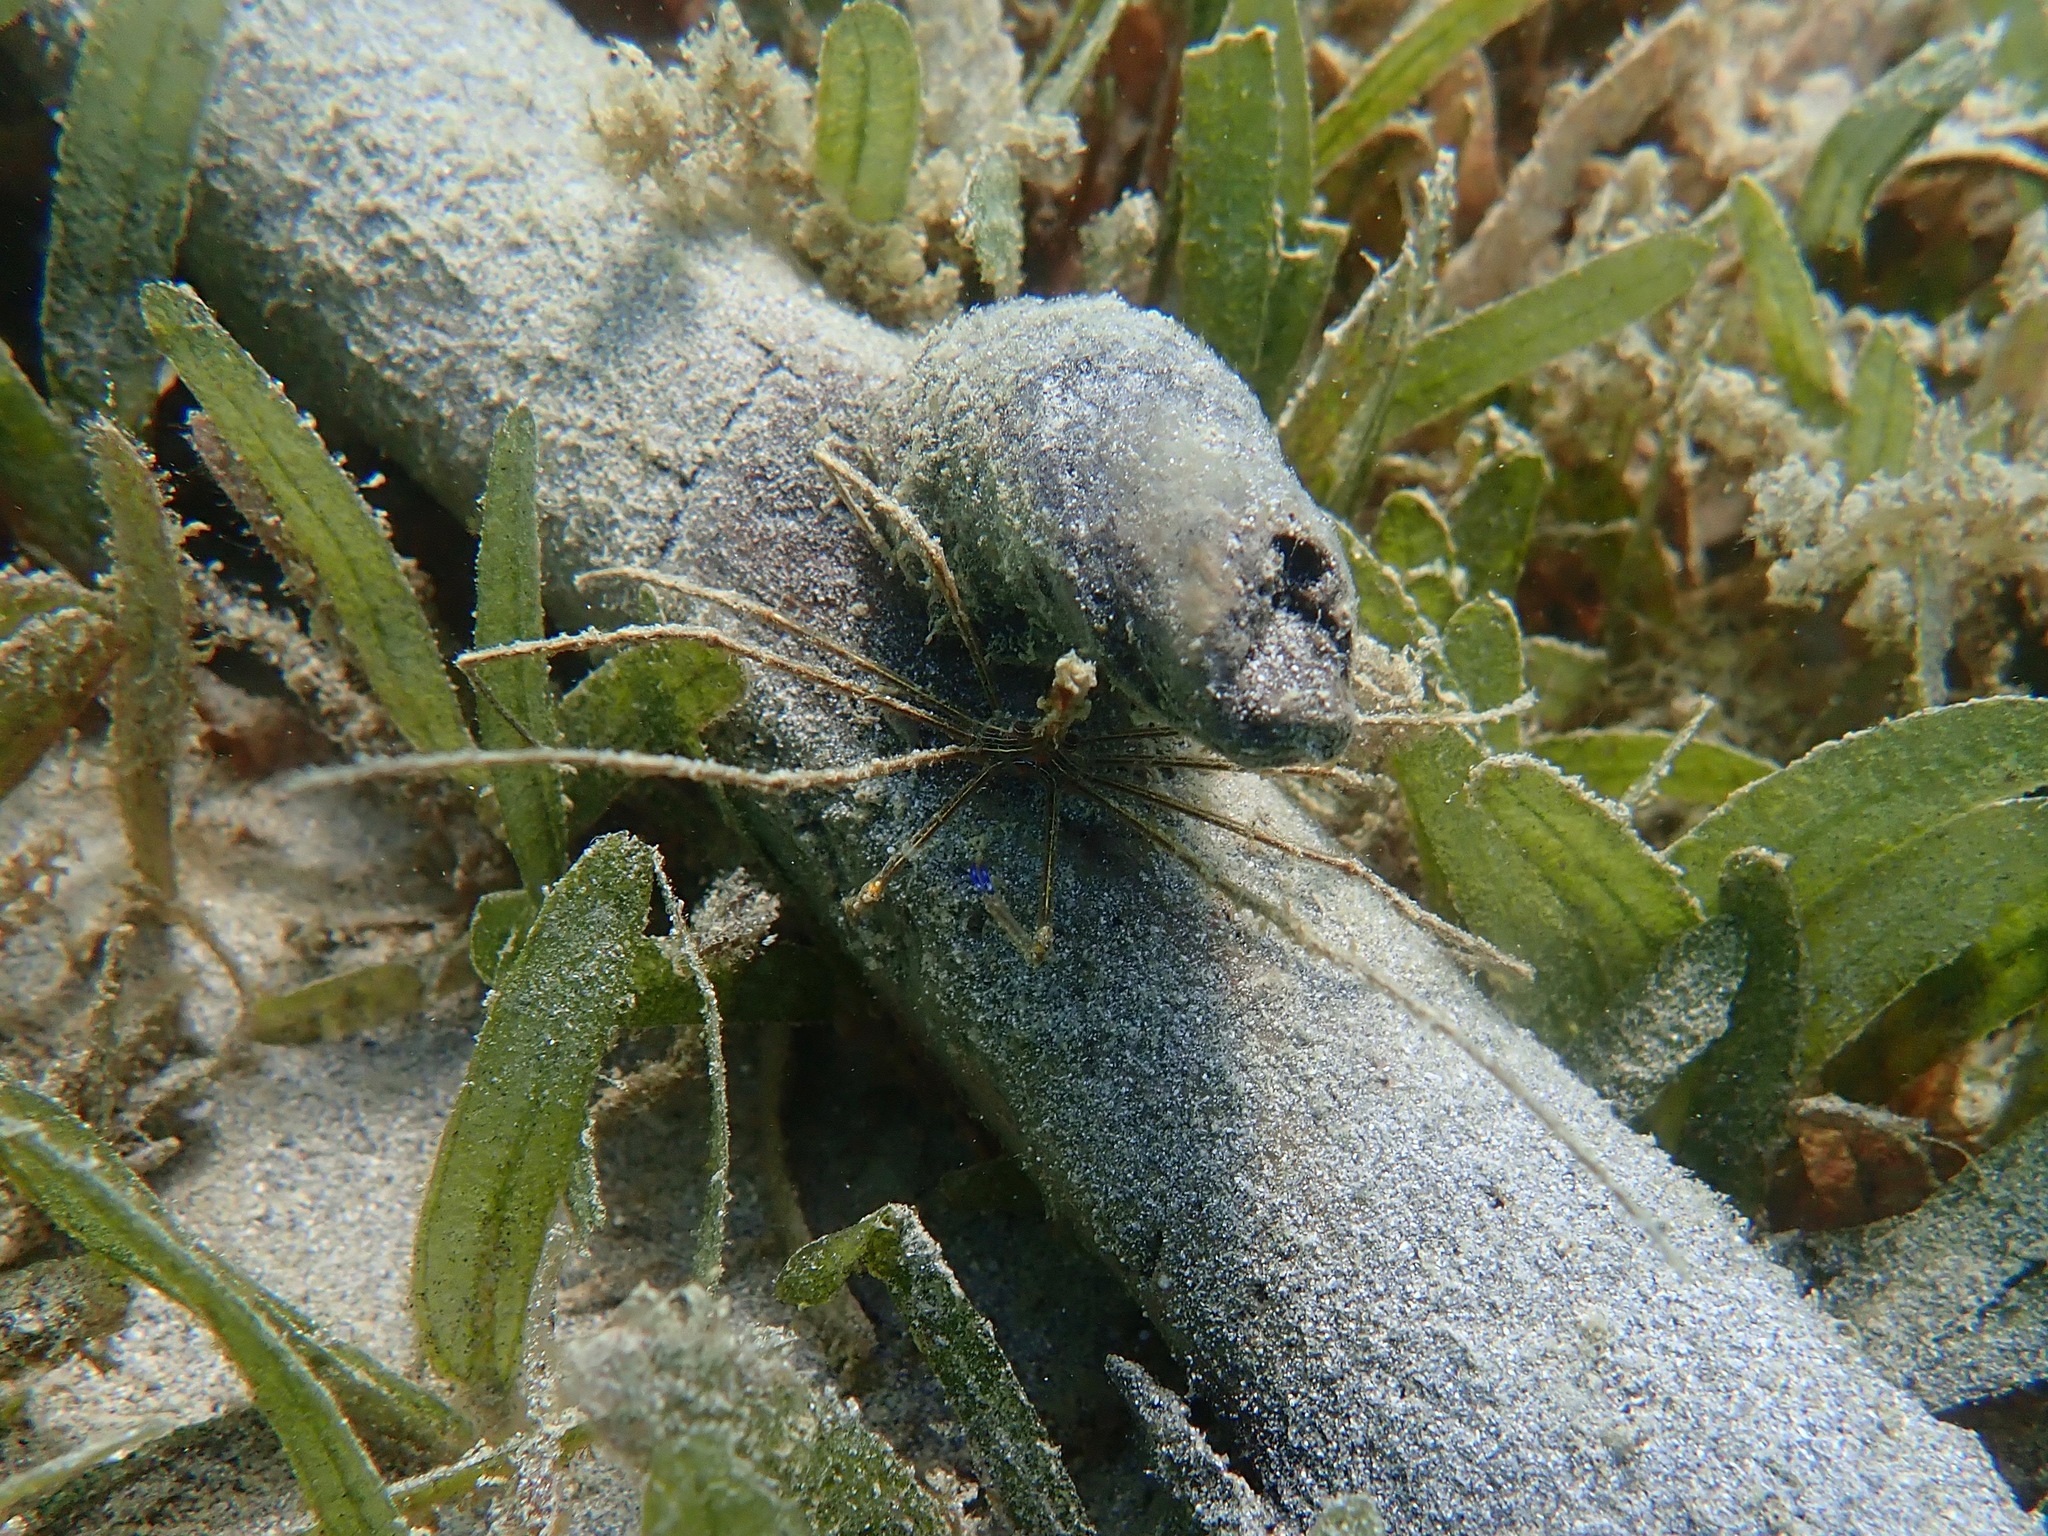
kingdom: Animalia
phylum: Arthropoda
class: Malacostraca
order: Decapoda
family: Inachoididae
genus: Stenorhynchus
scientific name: Stenorhynchus seticornis
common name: Arrow crab
